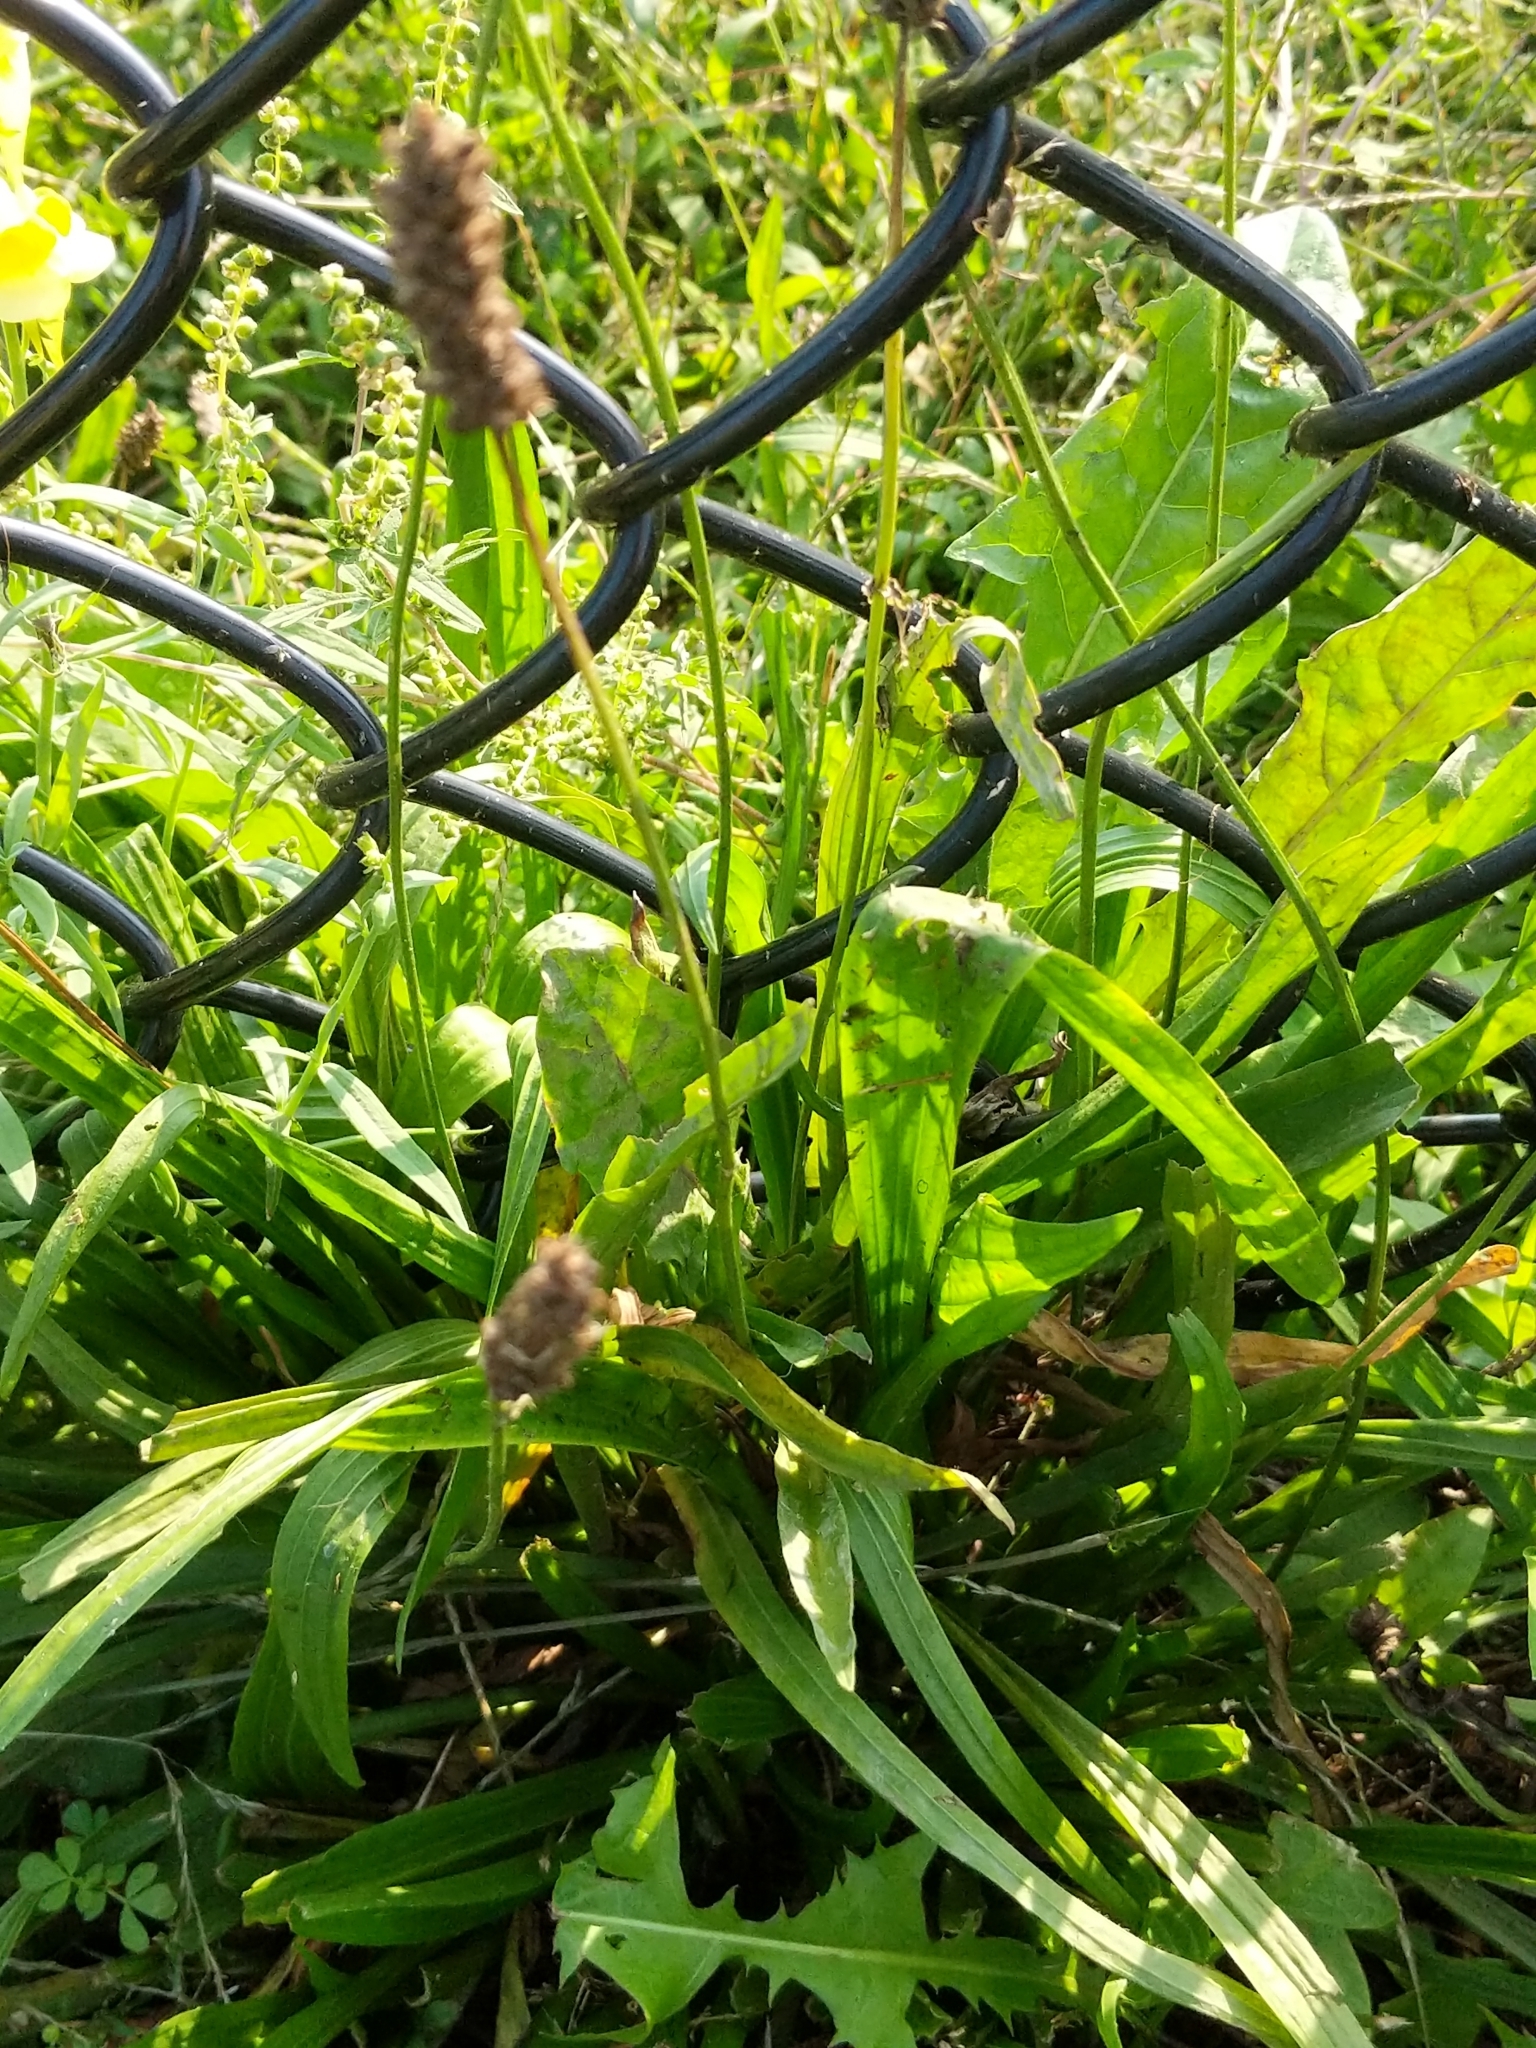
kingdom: Plantae
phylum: Tracheophyta
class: Magnoliopsida
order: Lamiales
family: Plantaginaceae
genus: Plantago
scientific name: Plantago lanceolata
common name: Ribwort plantain
